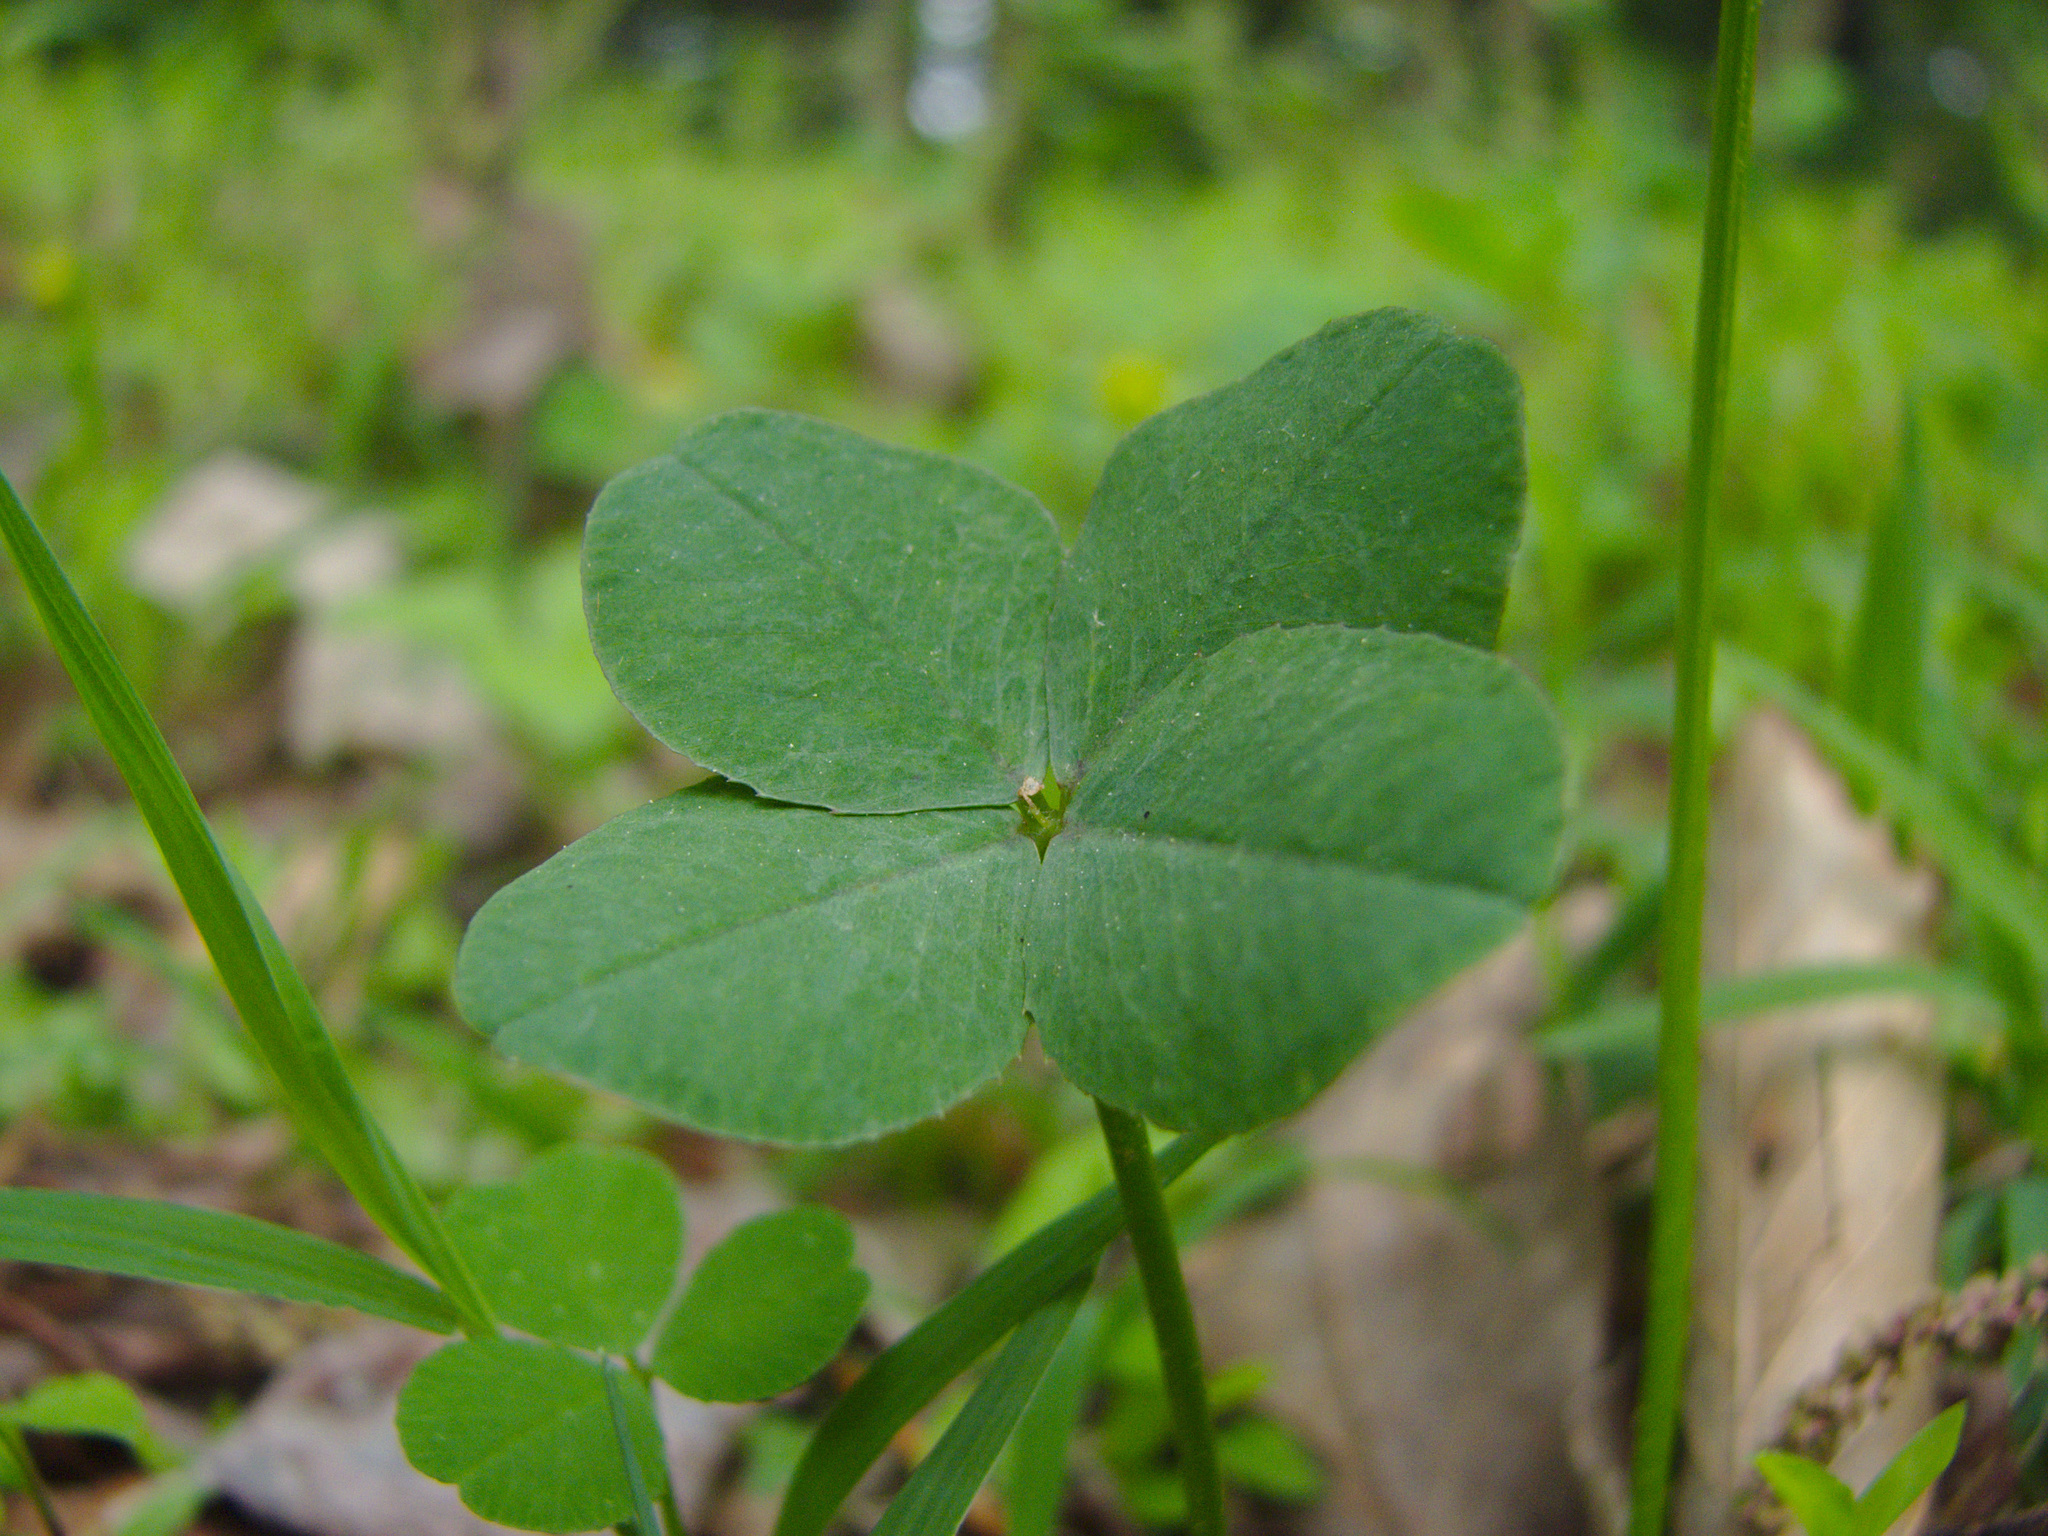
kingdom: Plantae
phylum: Tracheophyta
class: Magnoliopsida
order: Fabales
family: Fabaceae
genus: Trifolium
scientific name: Trifolium repens
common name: White clover
